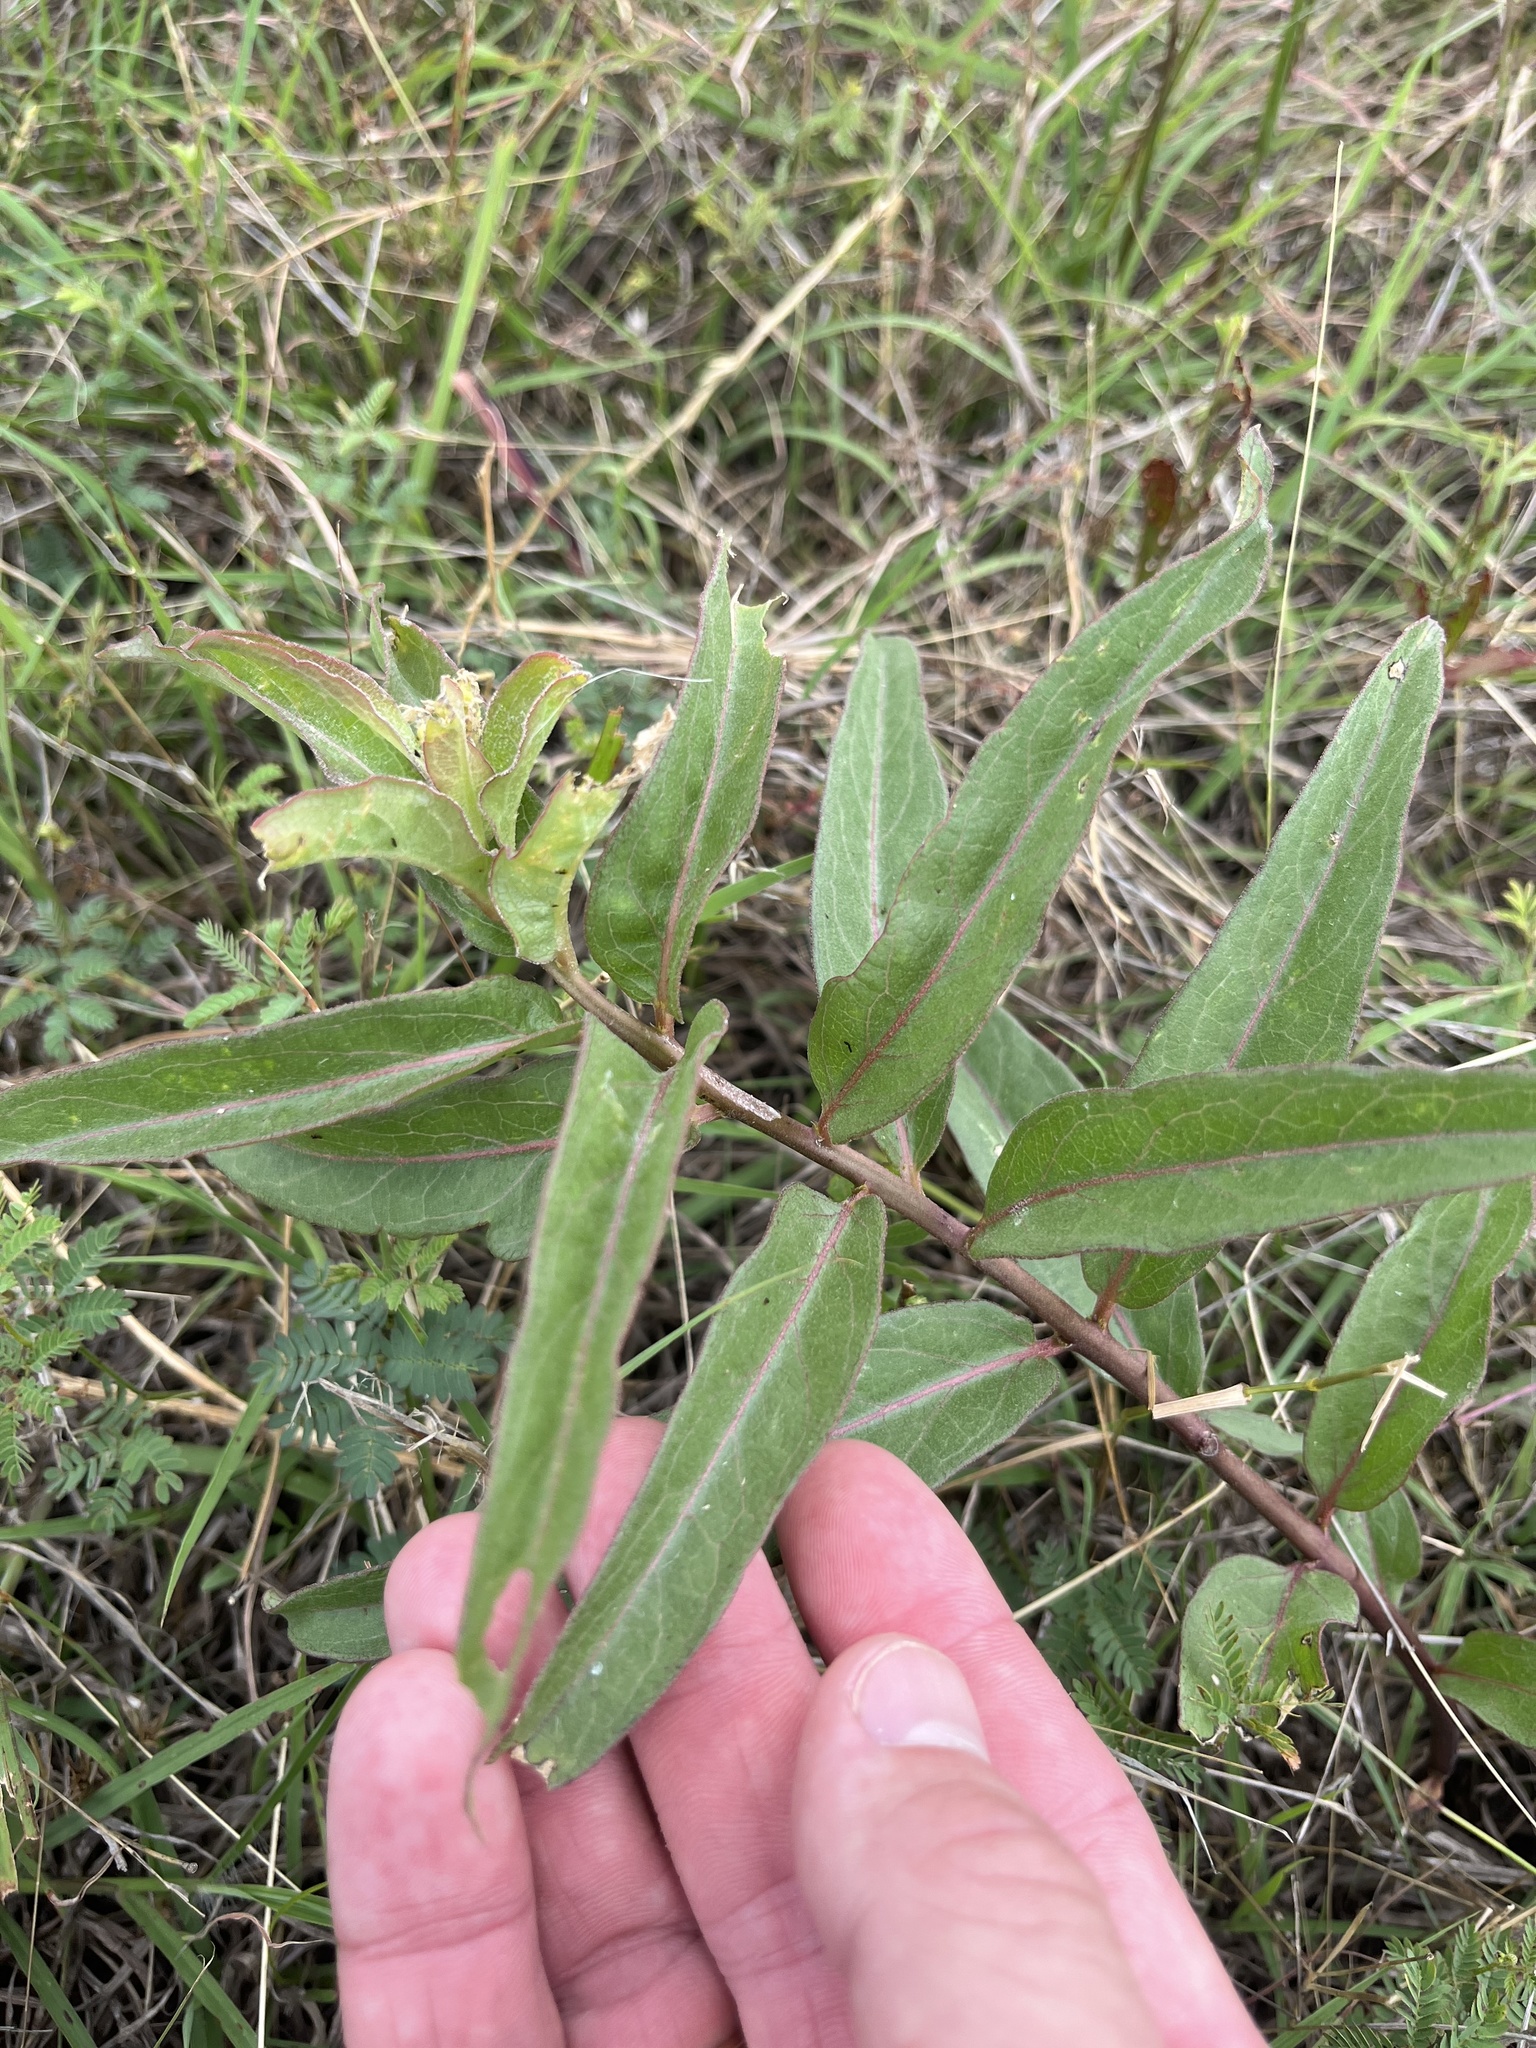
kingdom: Plantae
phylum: Tracheophyta
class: Magnoliopsida
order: Gentianales
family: Apocynaceae
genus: Asclepias
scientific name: Asclepias viridis
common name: Antelope-horns
